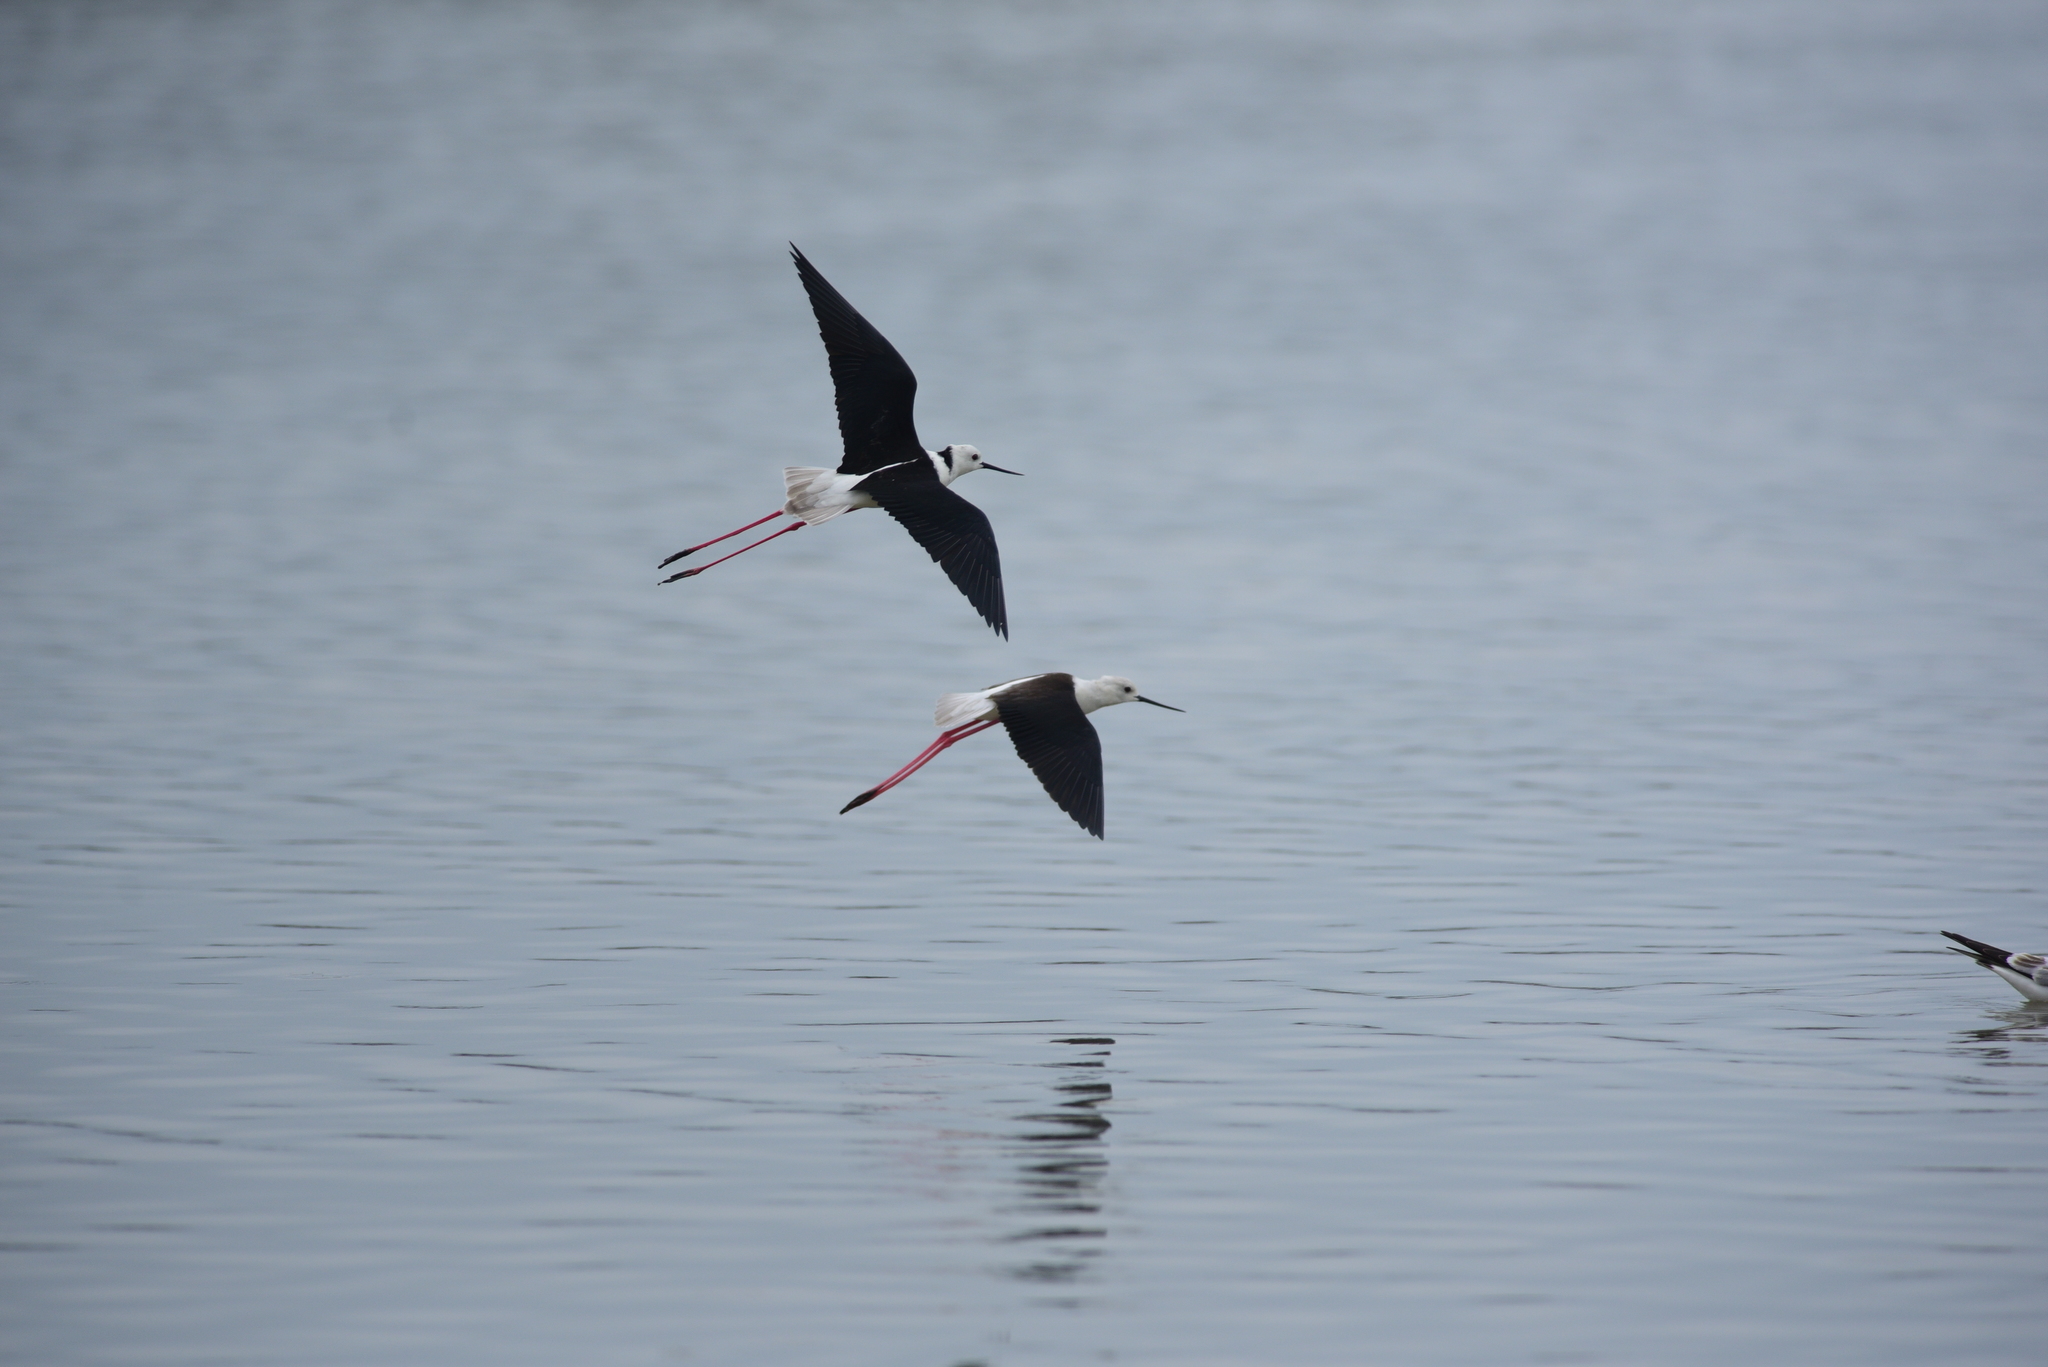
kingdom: Animalia
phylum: Chordata
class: Aves
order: Charadriiformes
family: Recurvirostridae
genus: Himantopus
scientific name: Himantopus himantopus
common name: Black-winged stilt
